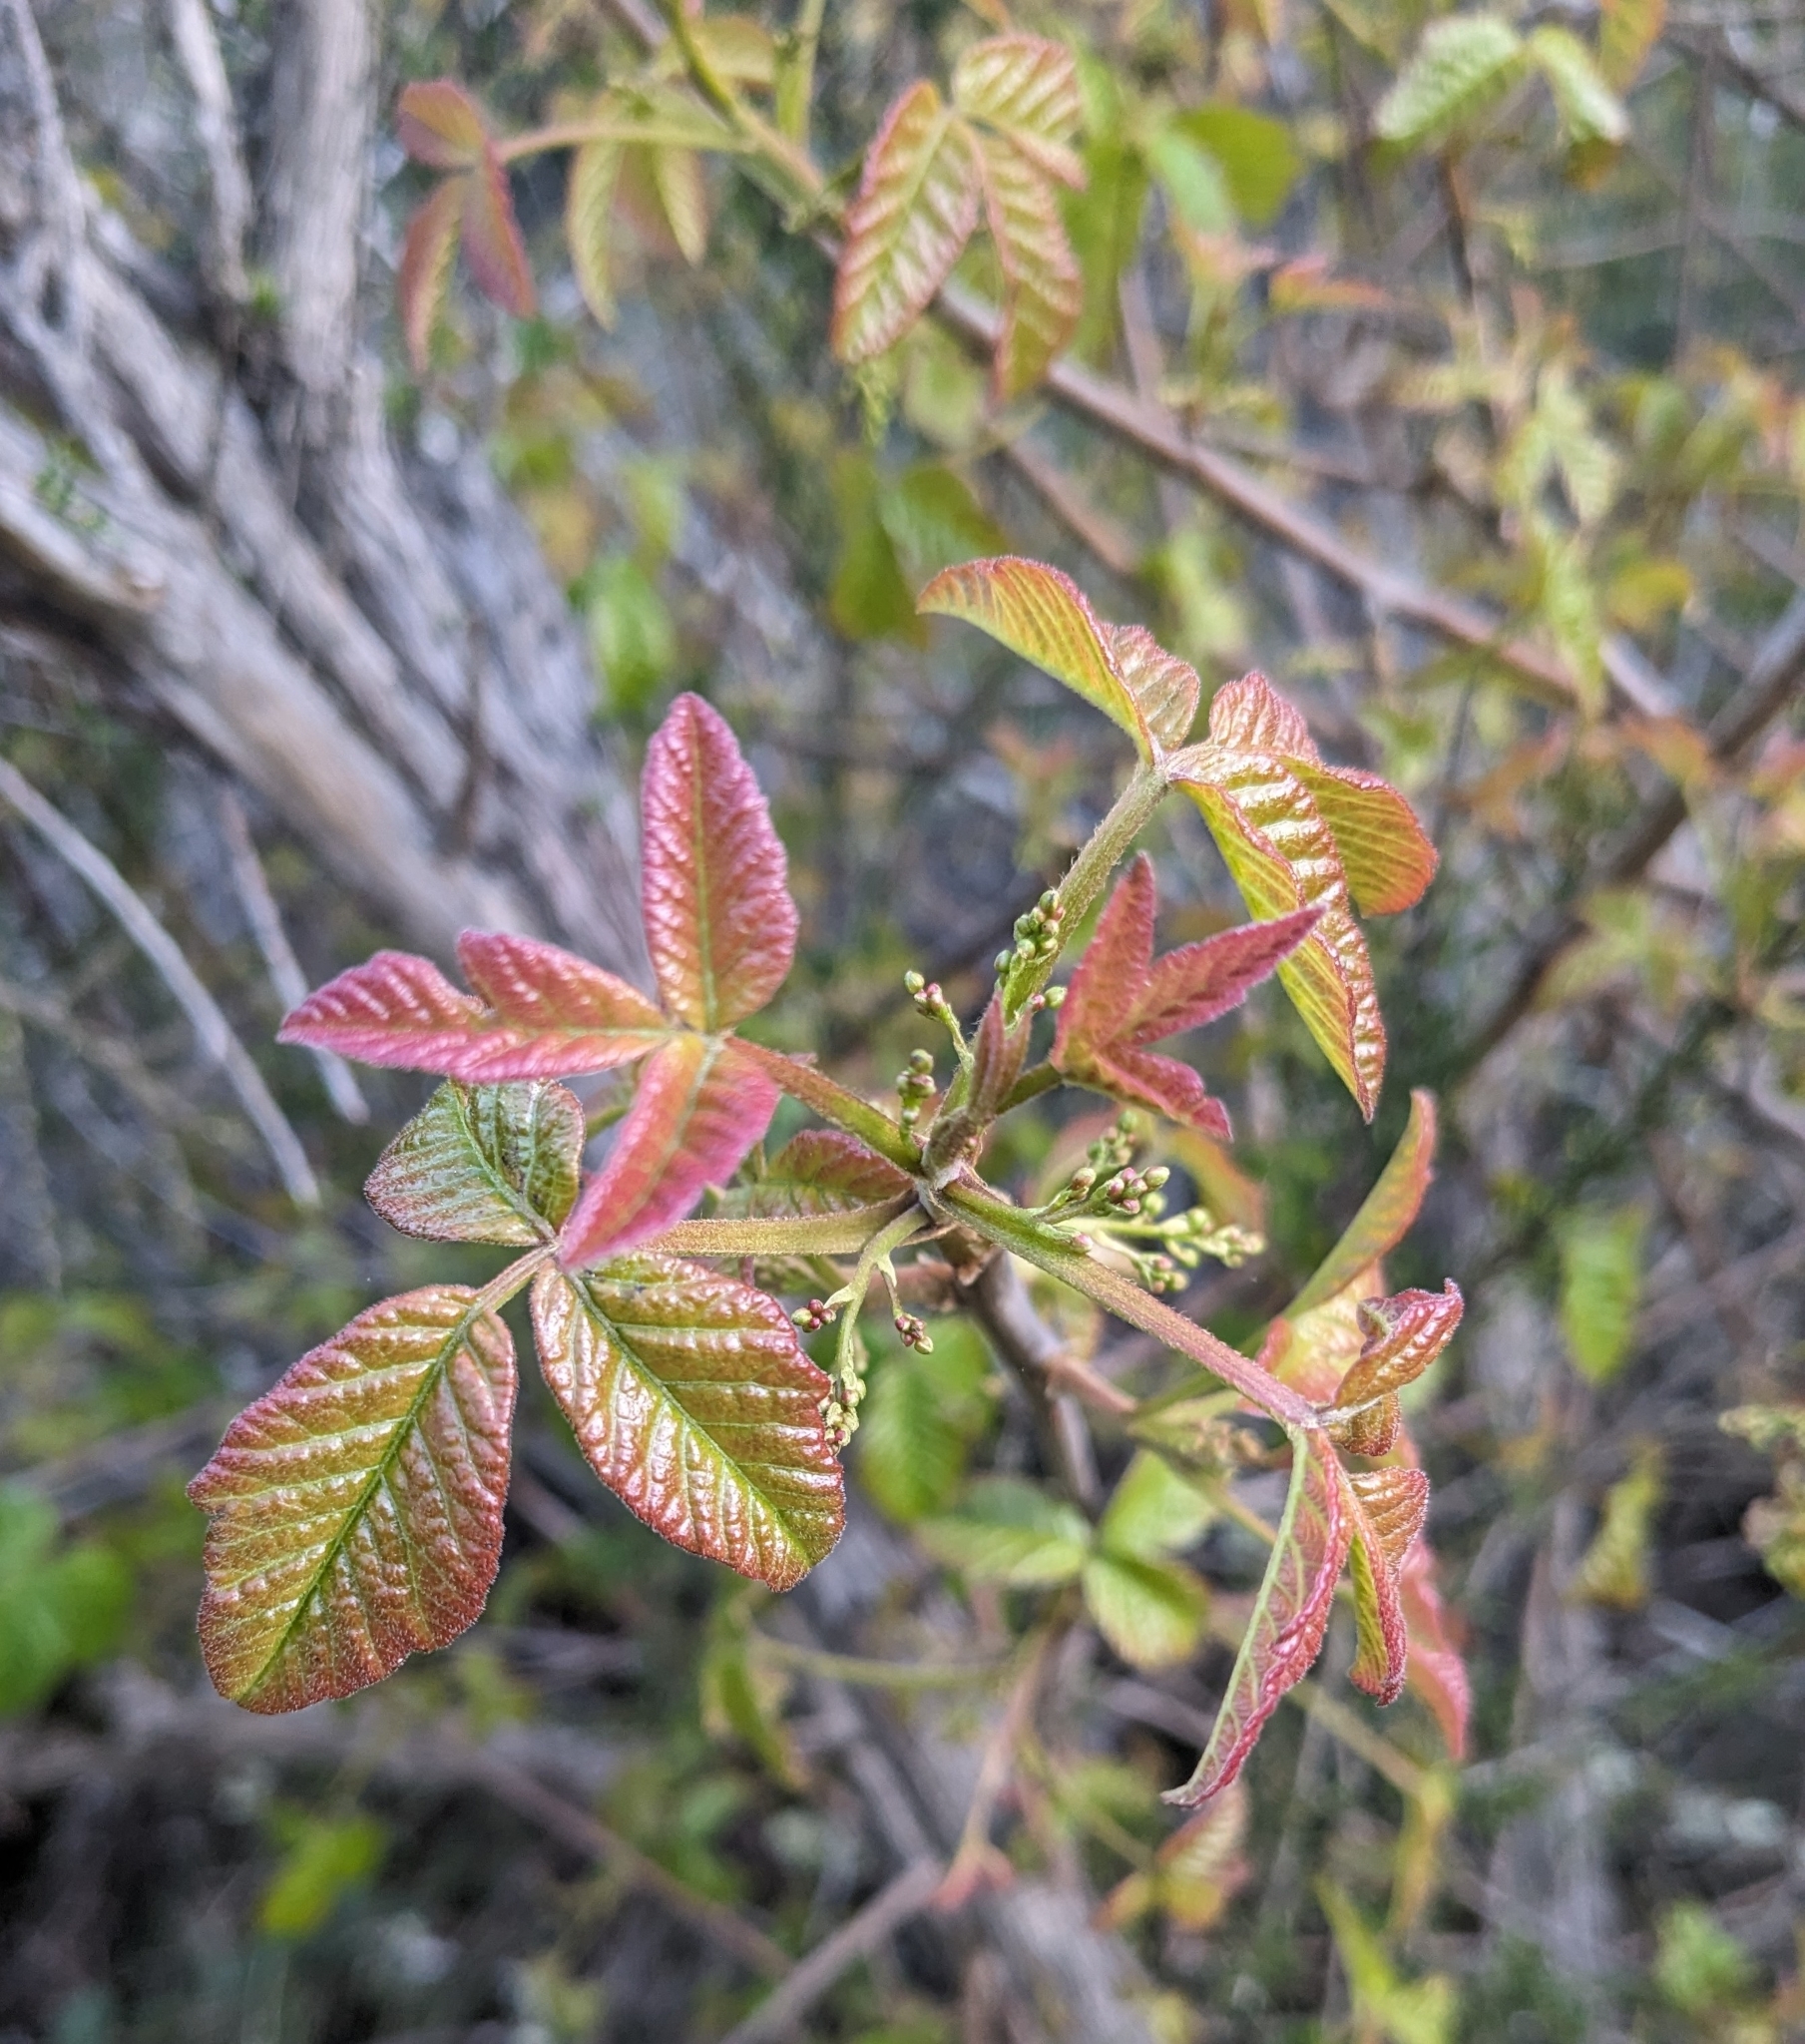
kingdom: Plantae
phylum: Tracheophyta
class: Magnoliopsida
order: Sapindales
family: Anacardiaceae
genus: Toxicodendron
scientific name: Toxicodendron diversilobum
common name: Pacific poison-oak
